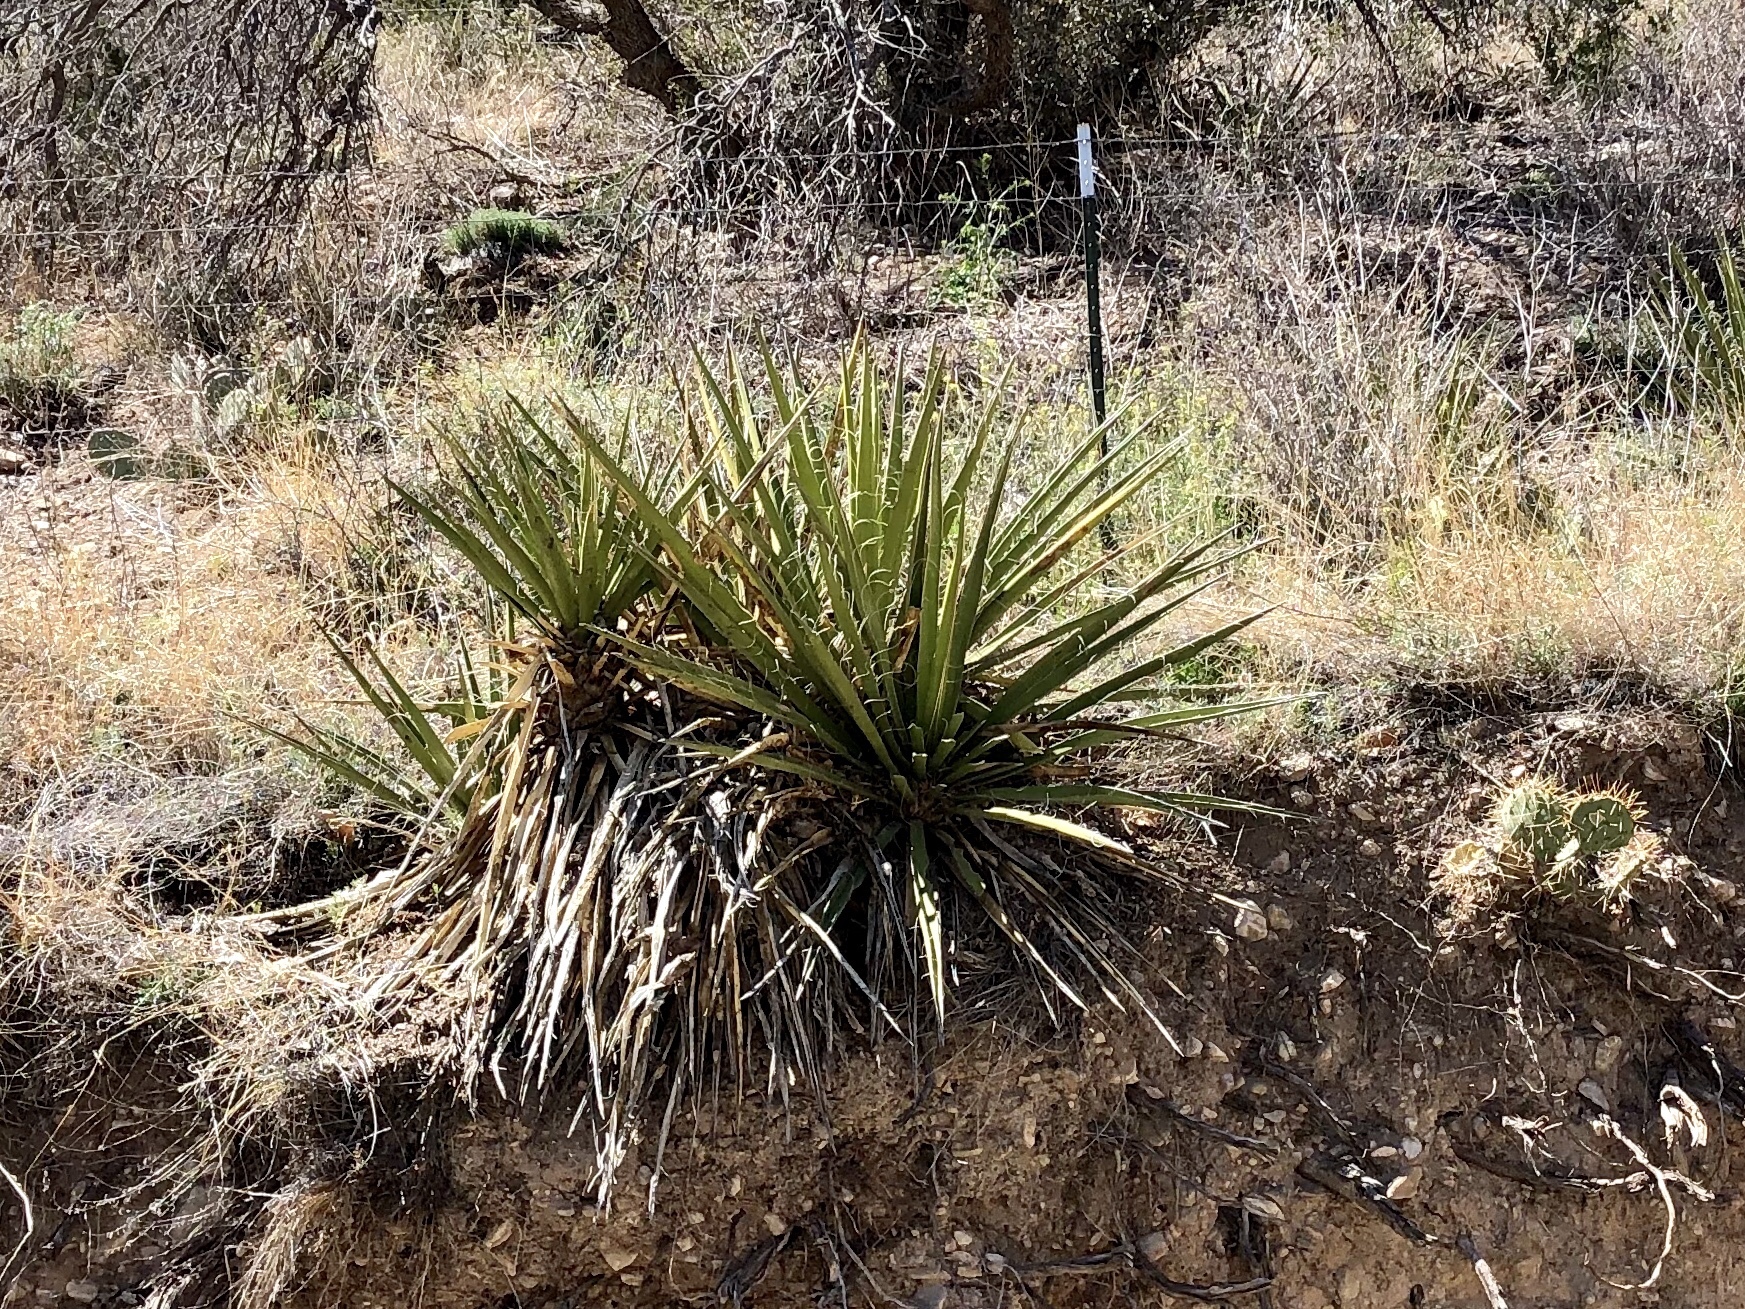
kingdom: Plantae
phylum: Tracheophyta
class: Liliopsida
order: Asparagales
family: Asparagaceae
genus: Yucca
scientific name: Yucca baccata
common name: Banana yucca
